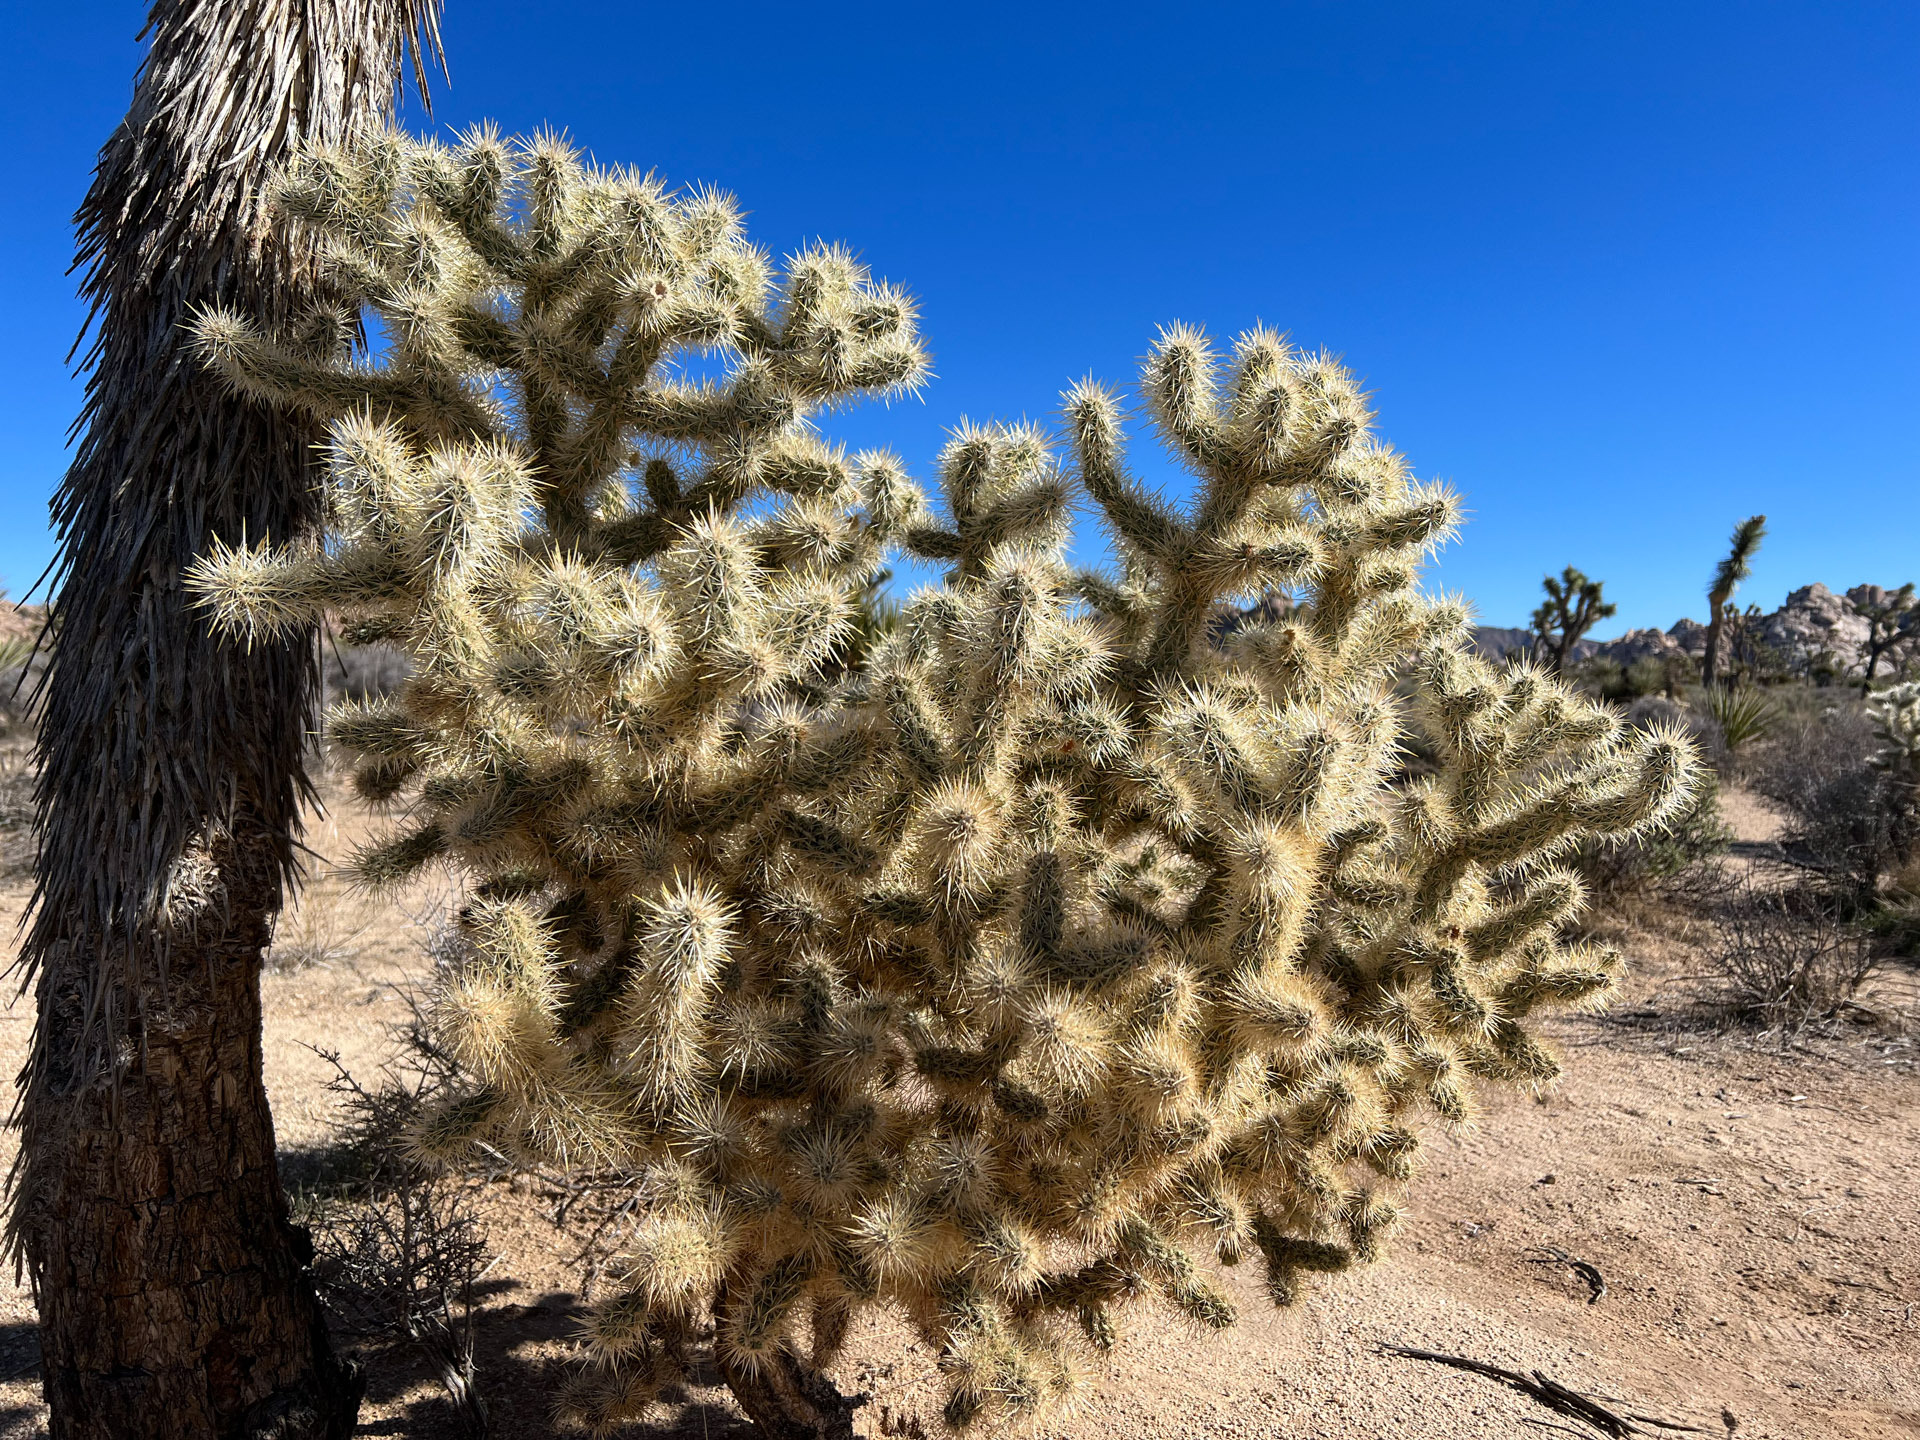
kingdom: Plantae
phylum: Tracheophyta
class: Magnoliopsida
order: Caryophyllales
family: Cactaceae
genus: Cylindropuntia
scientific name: Cylindropuntia echinocarpa
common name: Ground cholla
